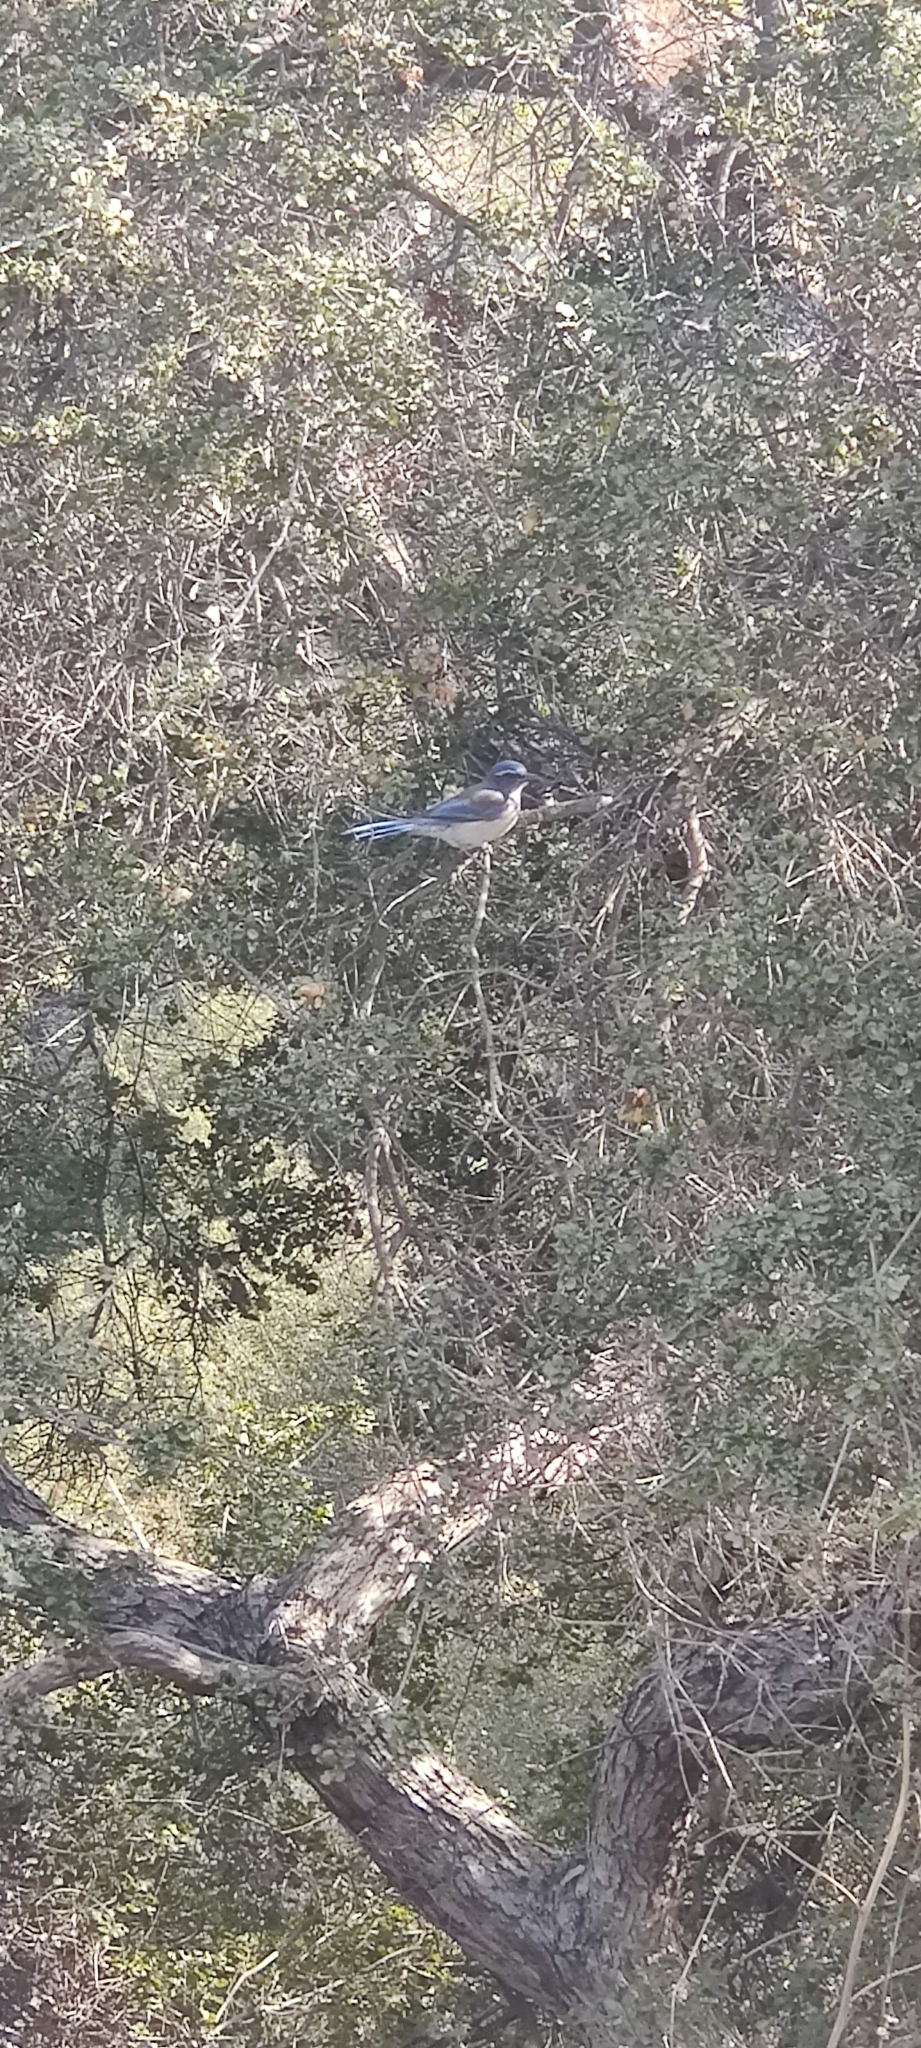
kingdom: Animalia
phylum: Chordata
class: Aves
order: Passeriformes
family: Corvidae
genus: Aphelocoma
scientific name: Aphelocoma californica
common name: California scrub-jay
